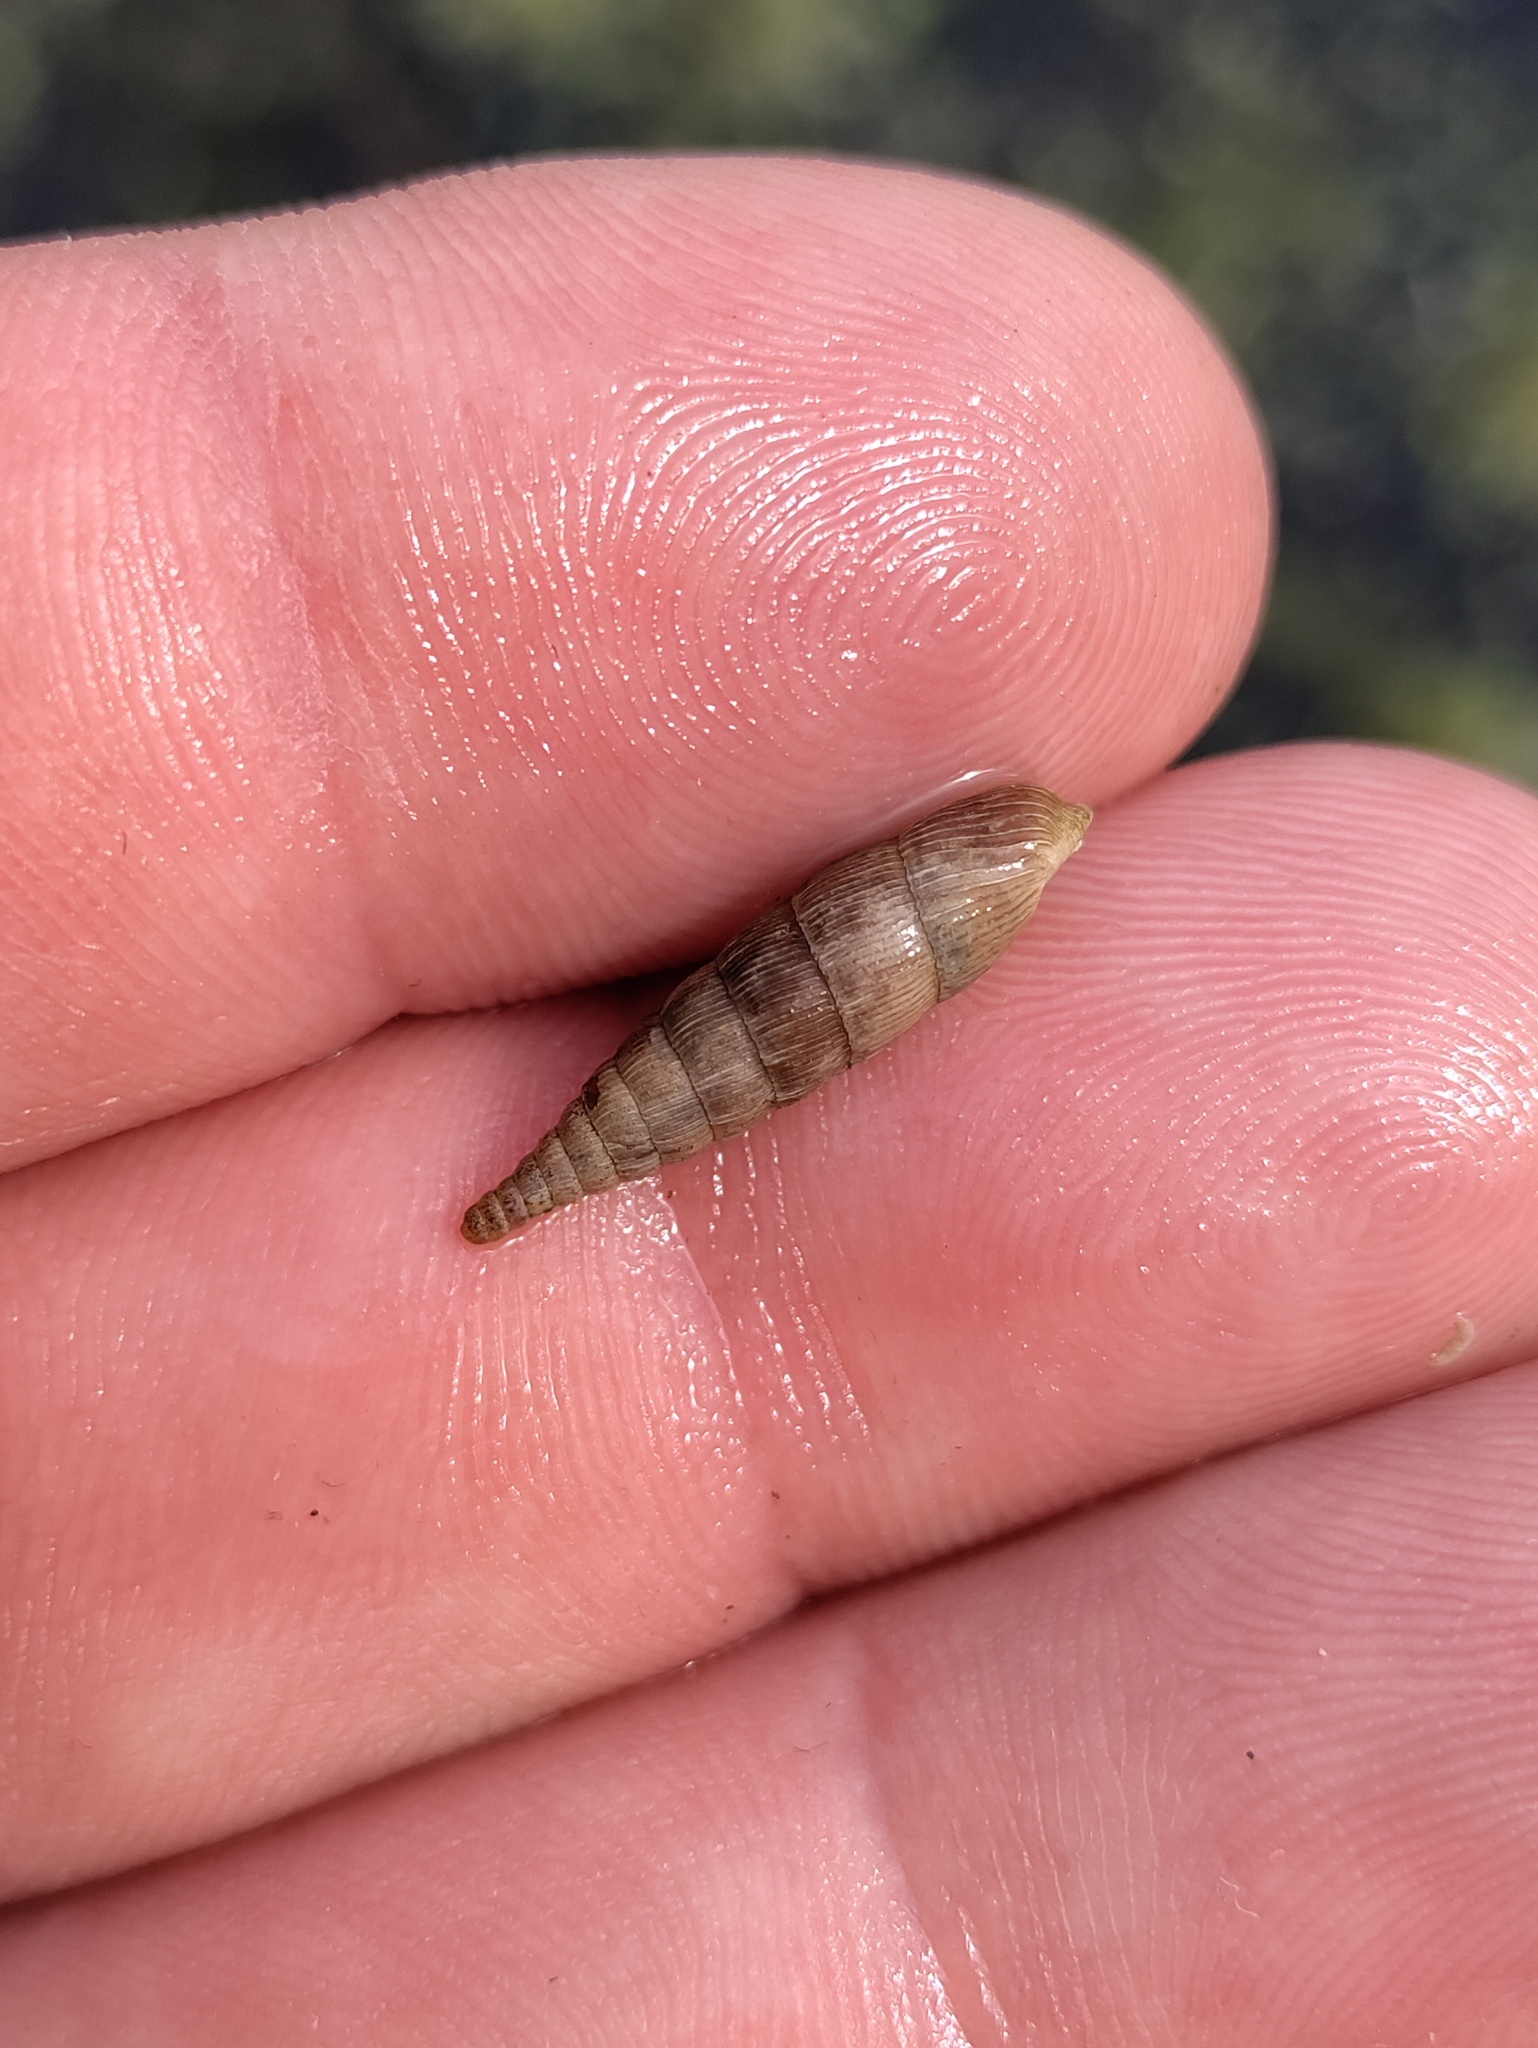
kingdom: Animalia
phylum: Mollusca
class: Gastropoda
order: Stylommatophora
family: Clausiliidae
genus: Alinda
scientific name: Alinda biplicata
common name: Thames door snail
